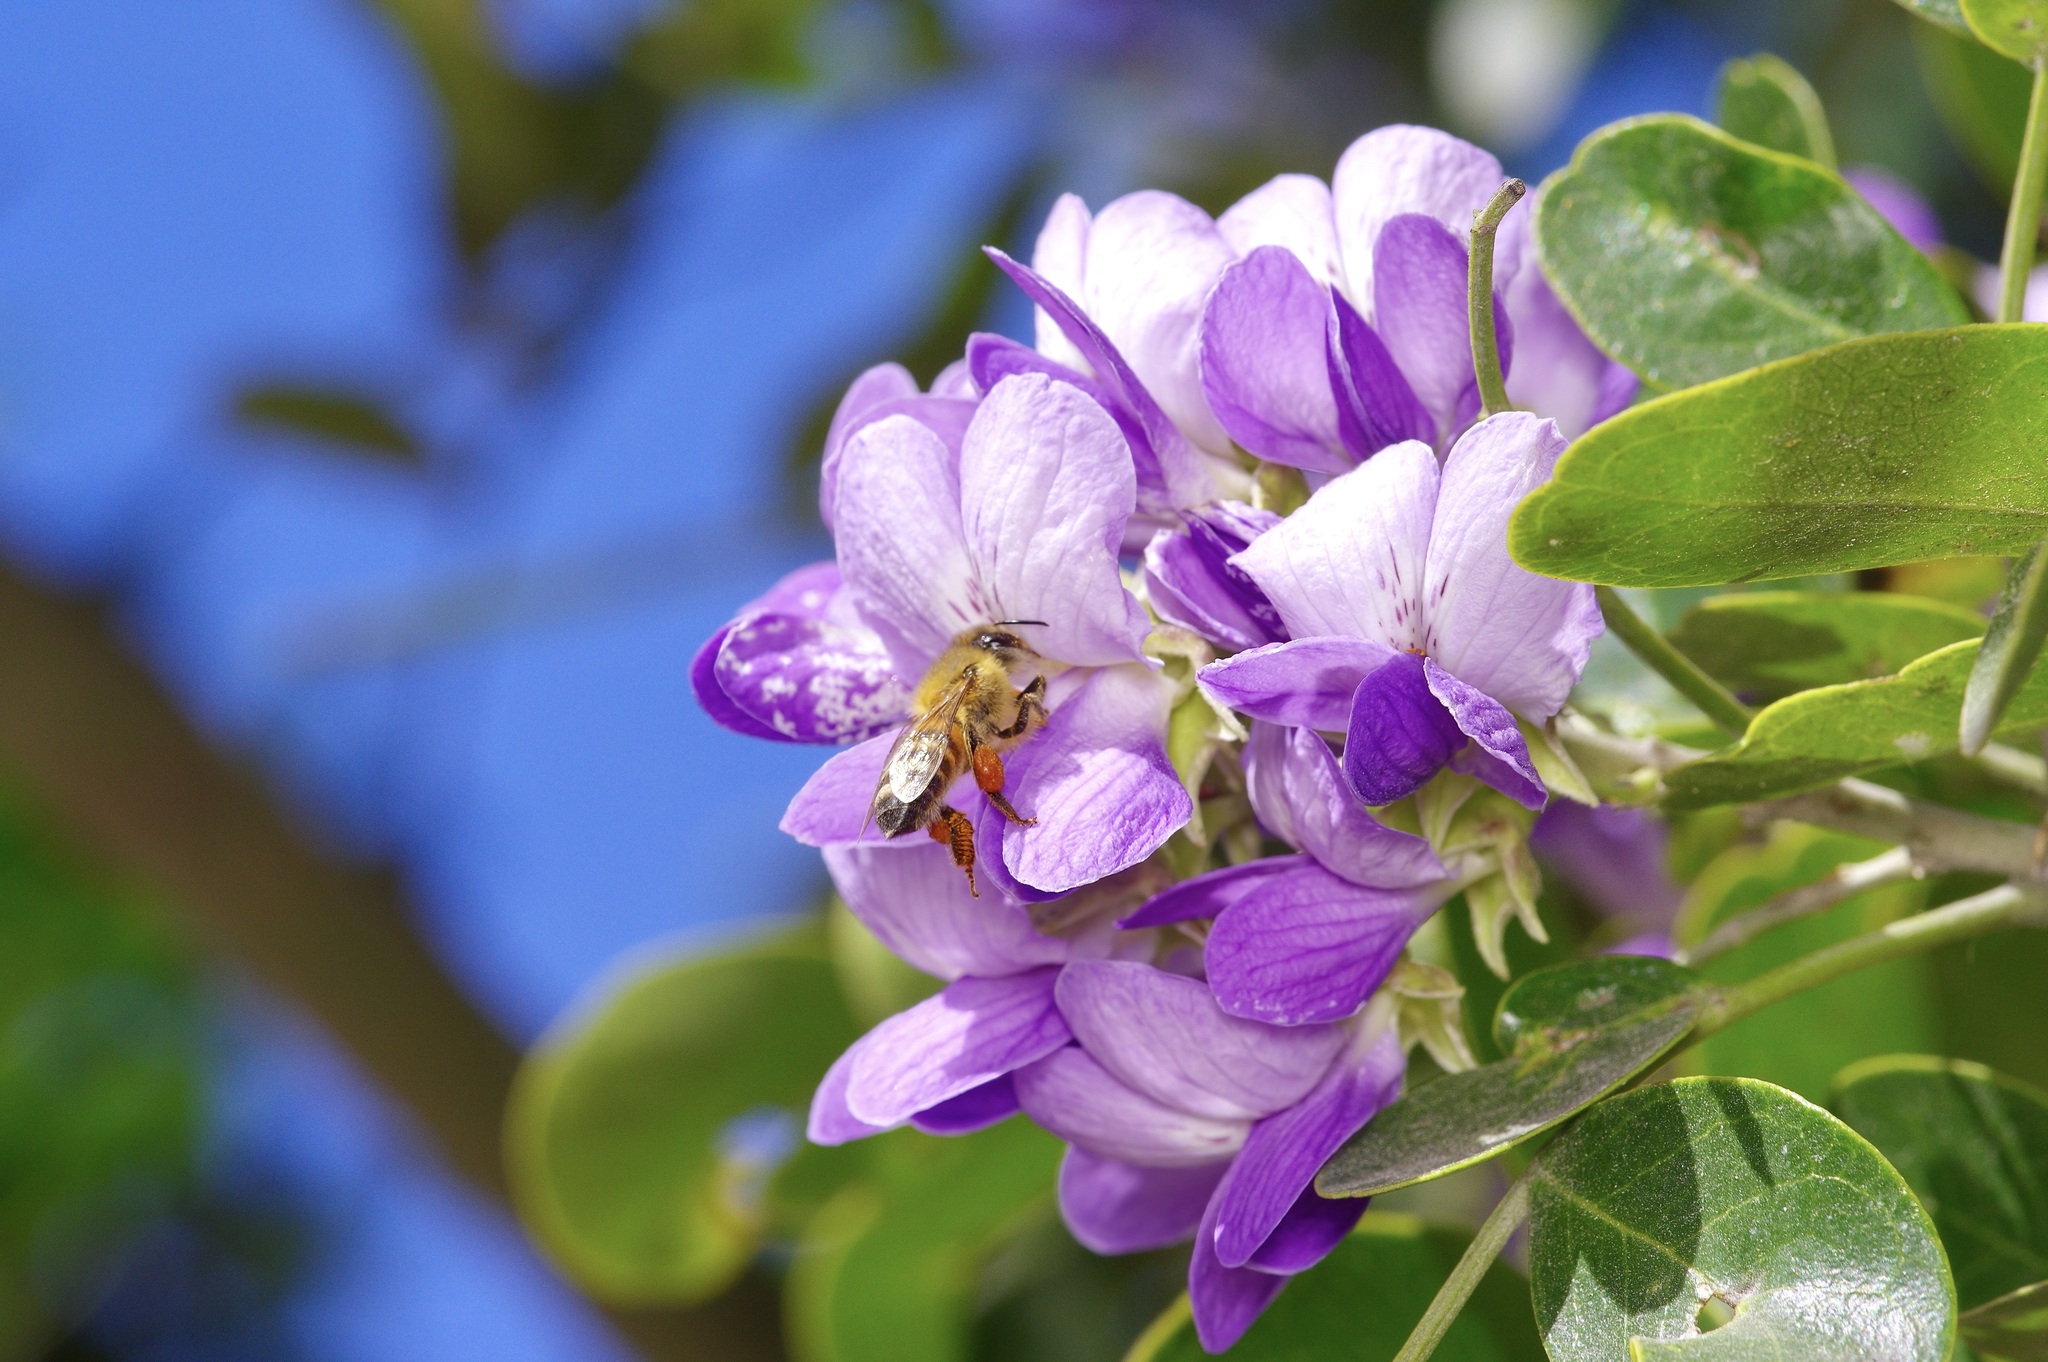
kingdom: Animalia
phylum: Arthropoda
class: Insecta
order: Hymenoptera
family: Apidae
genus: Apis
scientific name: Apis mellifera
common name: Honey bee
